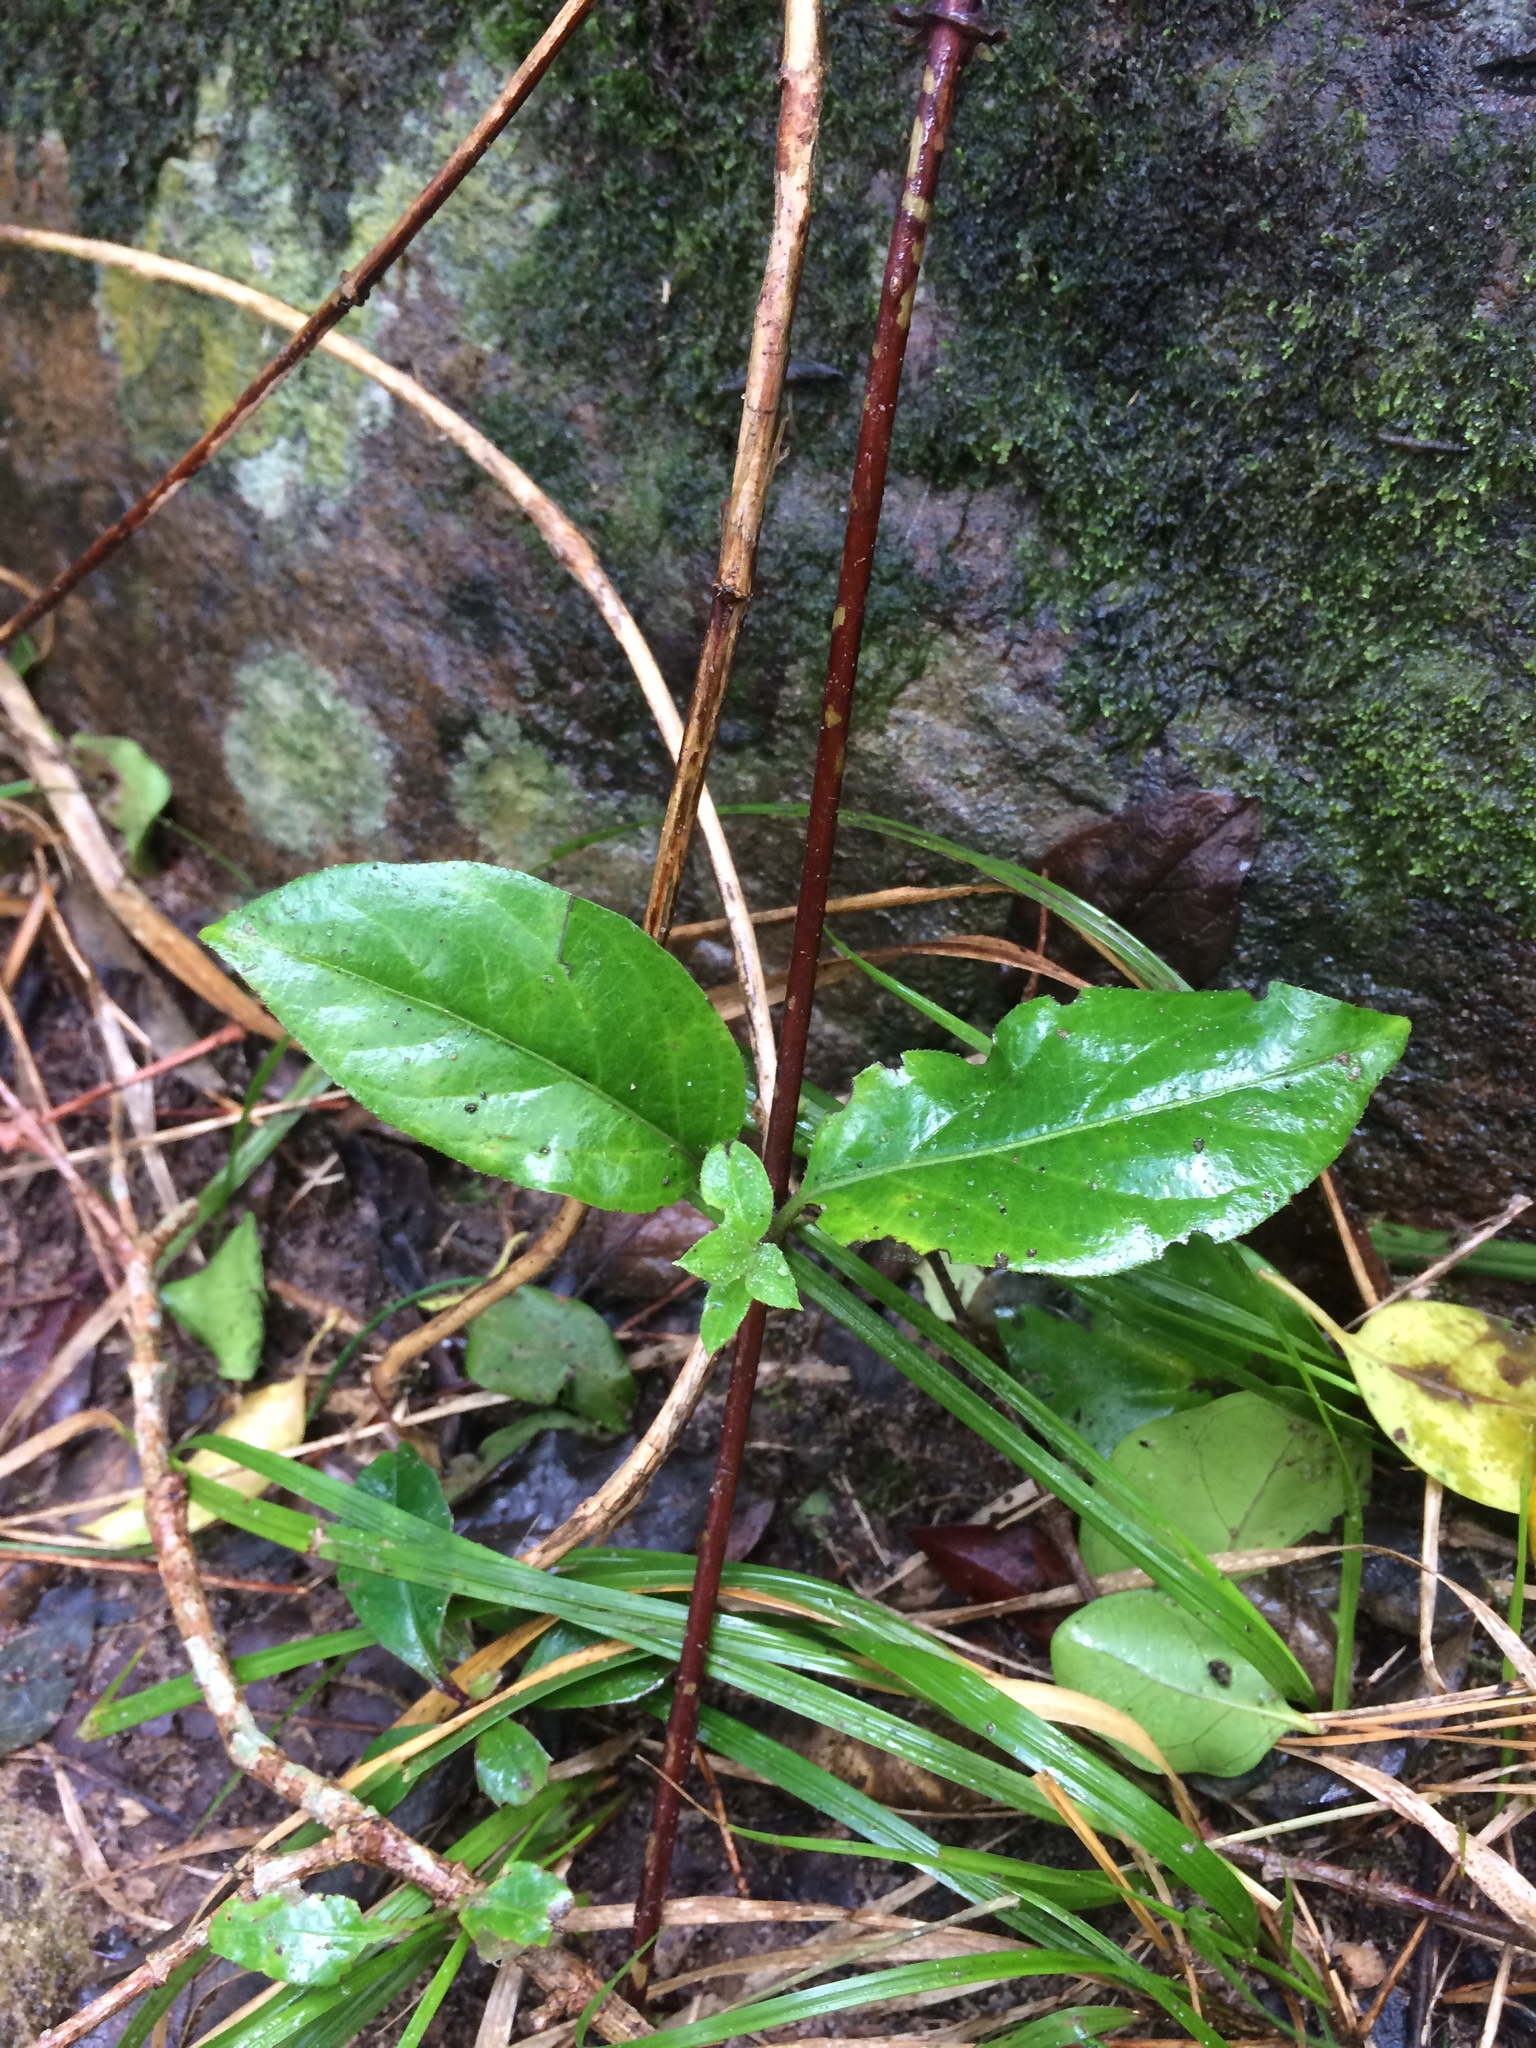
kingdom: Plantae
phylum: Tracheophyta
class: Magnoliopsida
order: Dipsacales
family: Caprifoliaceae
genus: Lonicera
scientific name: Lonicera japonica
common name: Japanese honeysuckle
